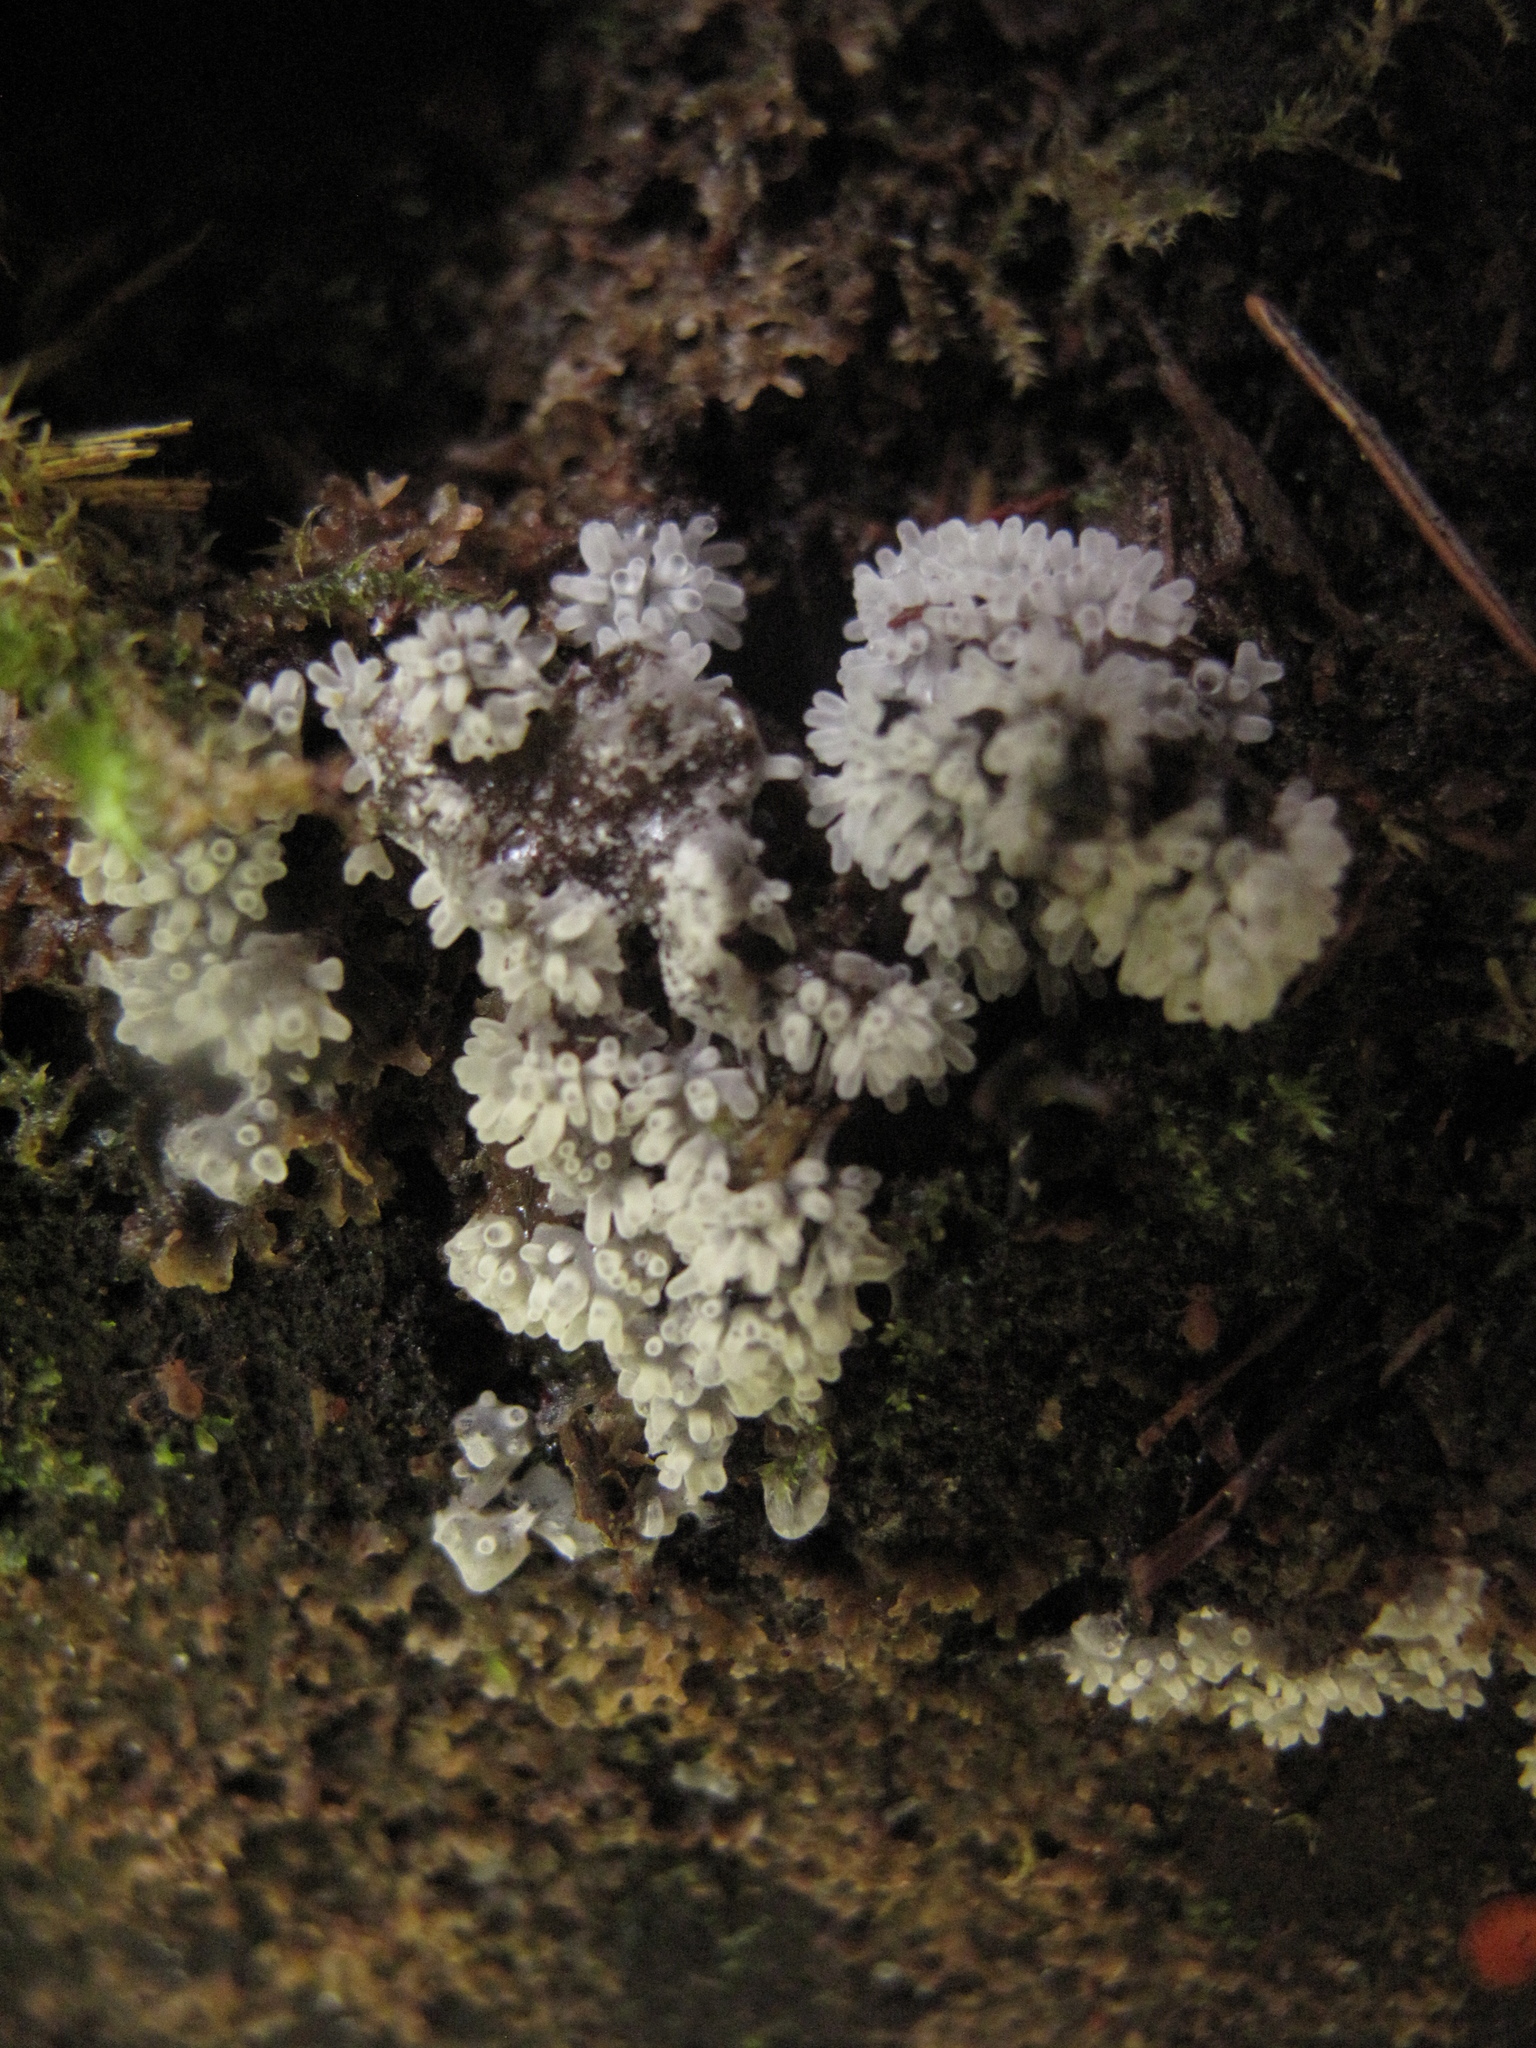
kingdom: Protozoa
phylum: Mycetozoa
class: Protosteliomycetes
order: Ceratiomyxales
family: Ceratiomyxaceae
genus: Ceratiomyxa
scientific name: Ceratiomyxa fruticulosa
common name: Honeycomb coral slime mold
